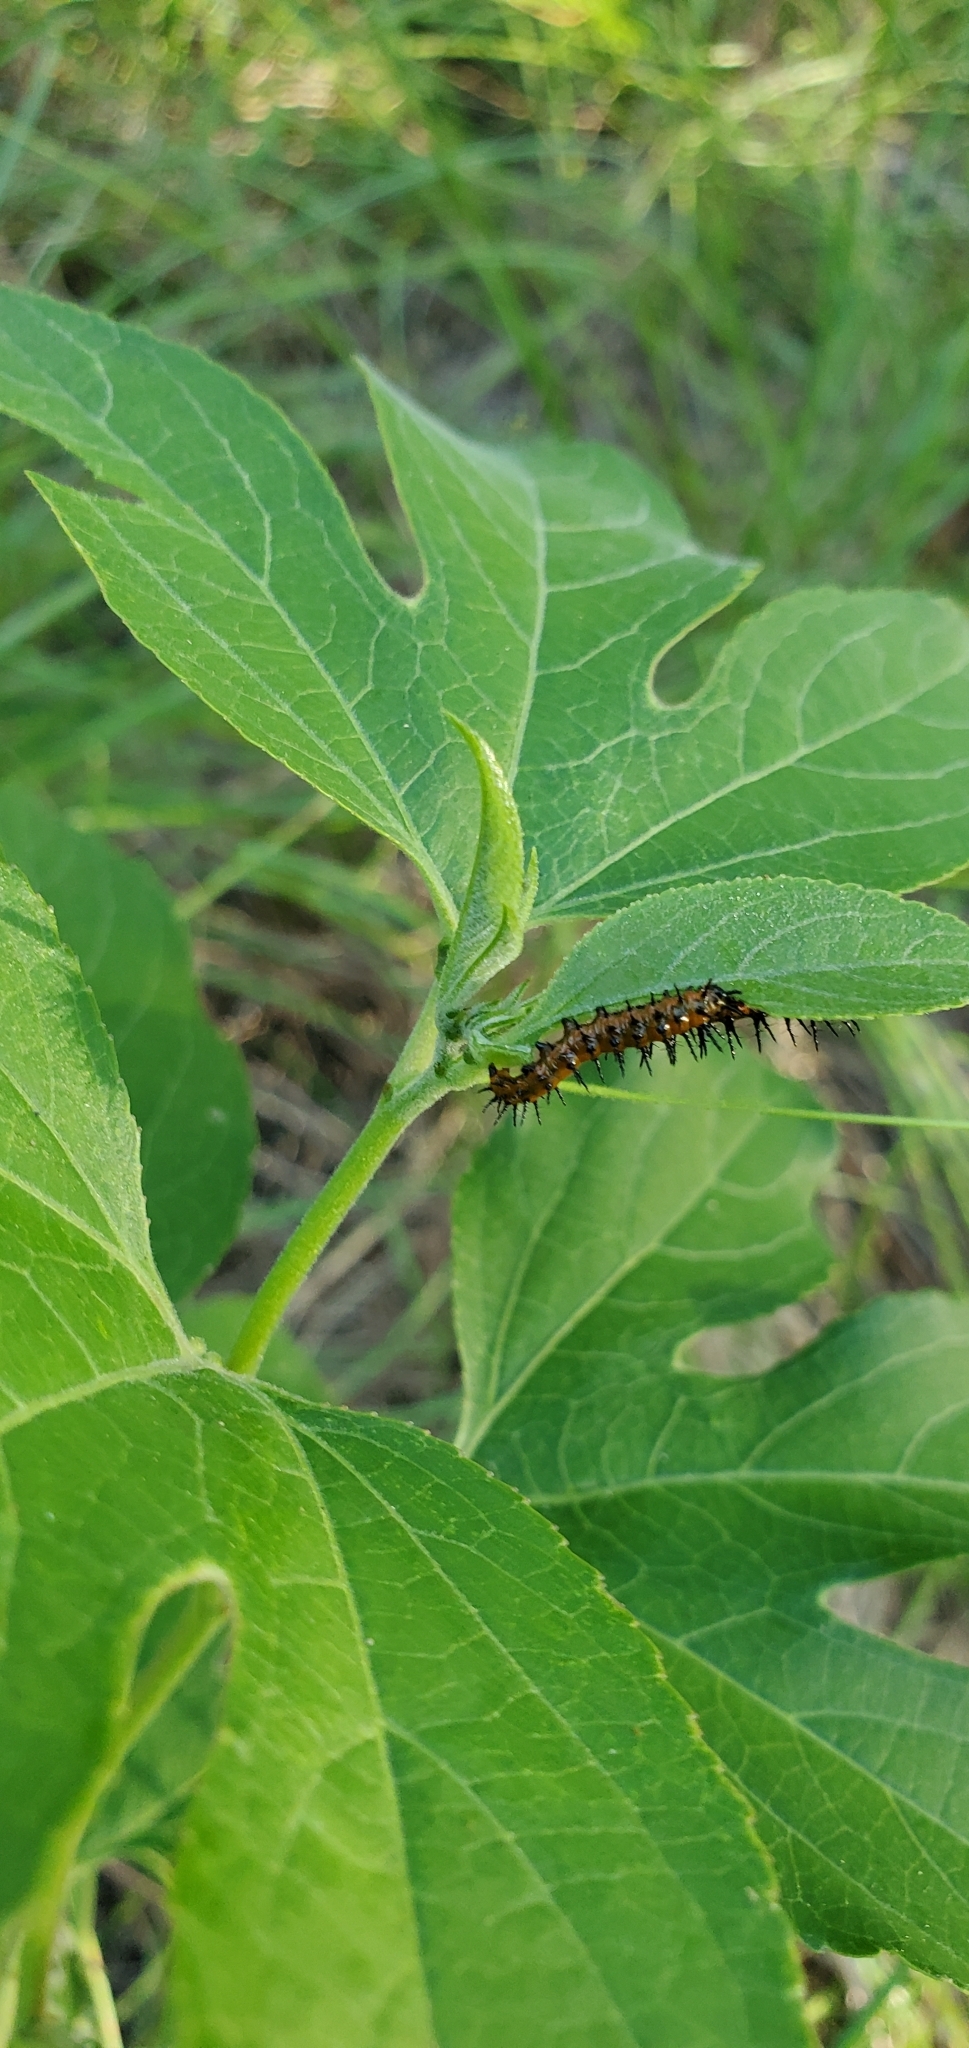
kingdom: Animalia
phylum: Arthropoda
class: Insecta
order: Lepidoptera
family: Nymphalidae
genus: Dione
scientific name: Dione vanillae
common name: Gulf fritillary
